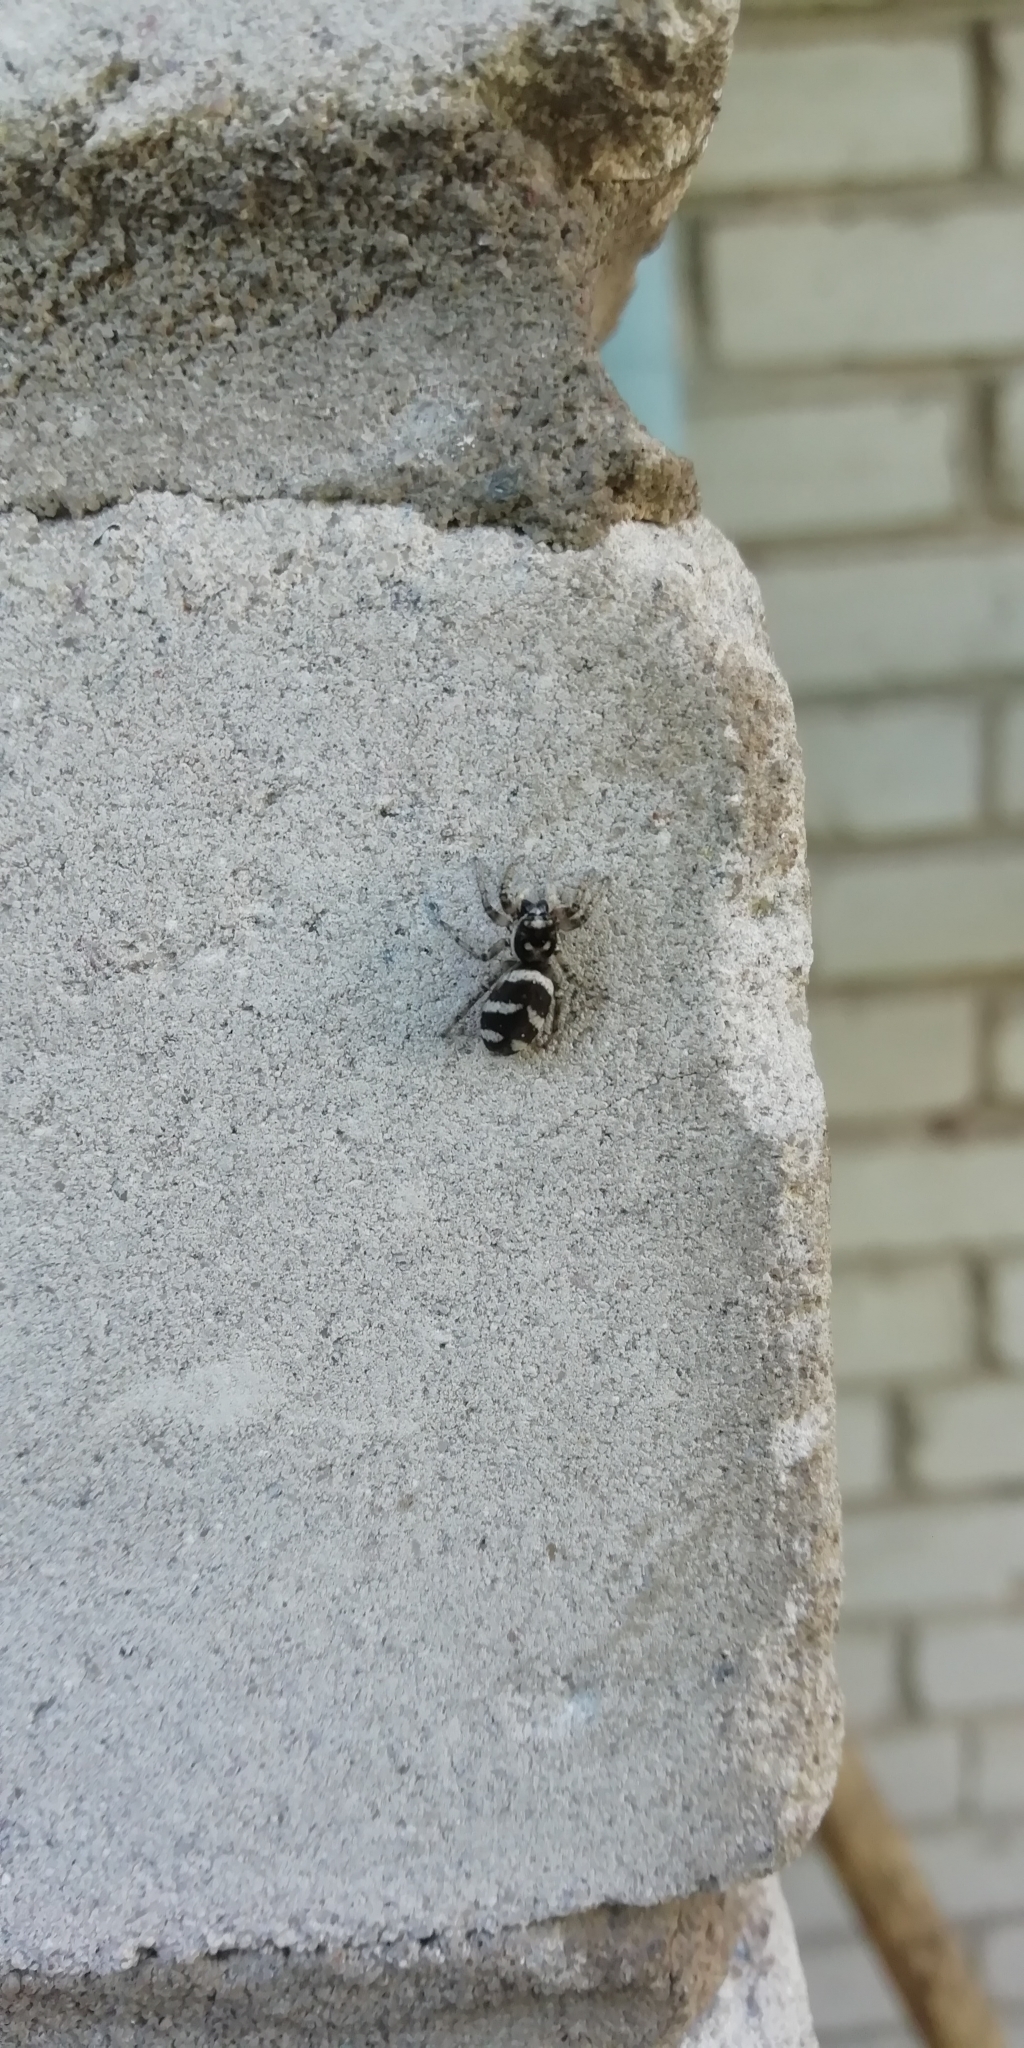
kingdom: Animalia
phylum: Arthropoda
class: Arachnida
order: Araneae
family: Salticidae
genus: Salticus
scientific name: Salticus scenicus
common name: Zebra jumper
